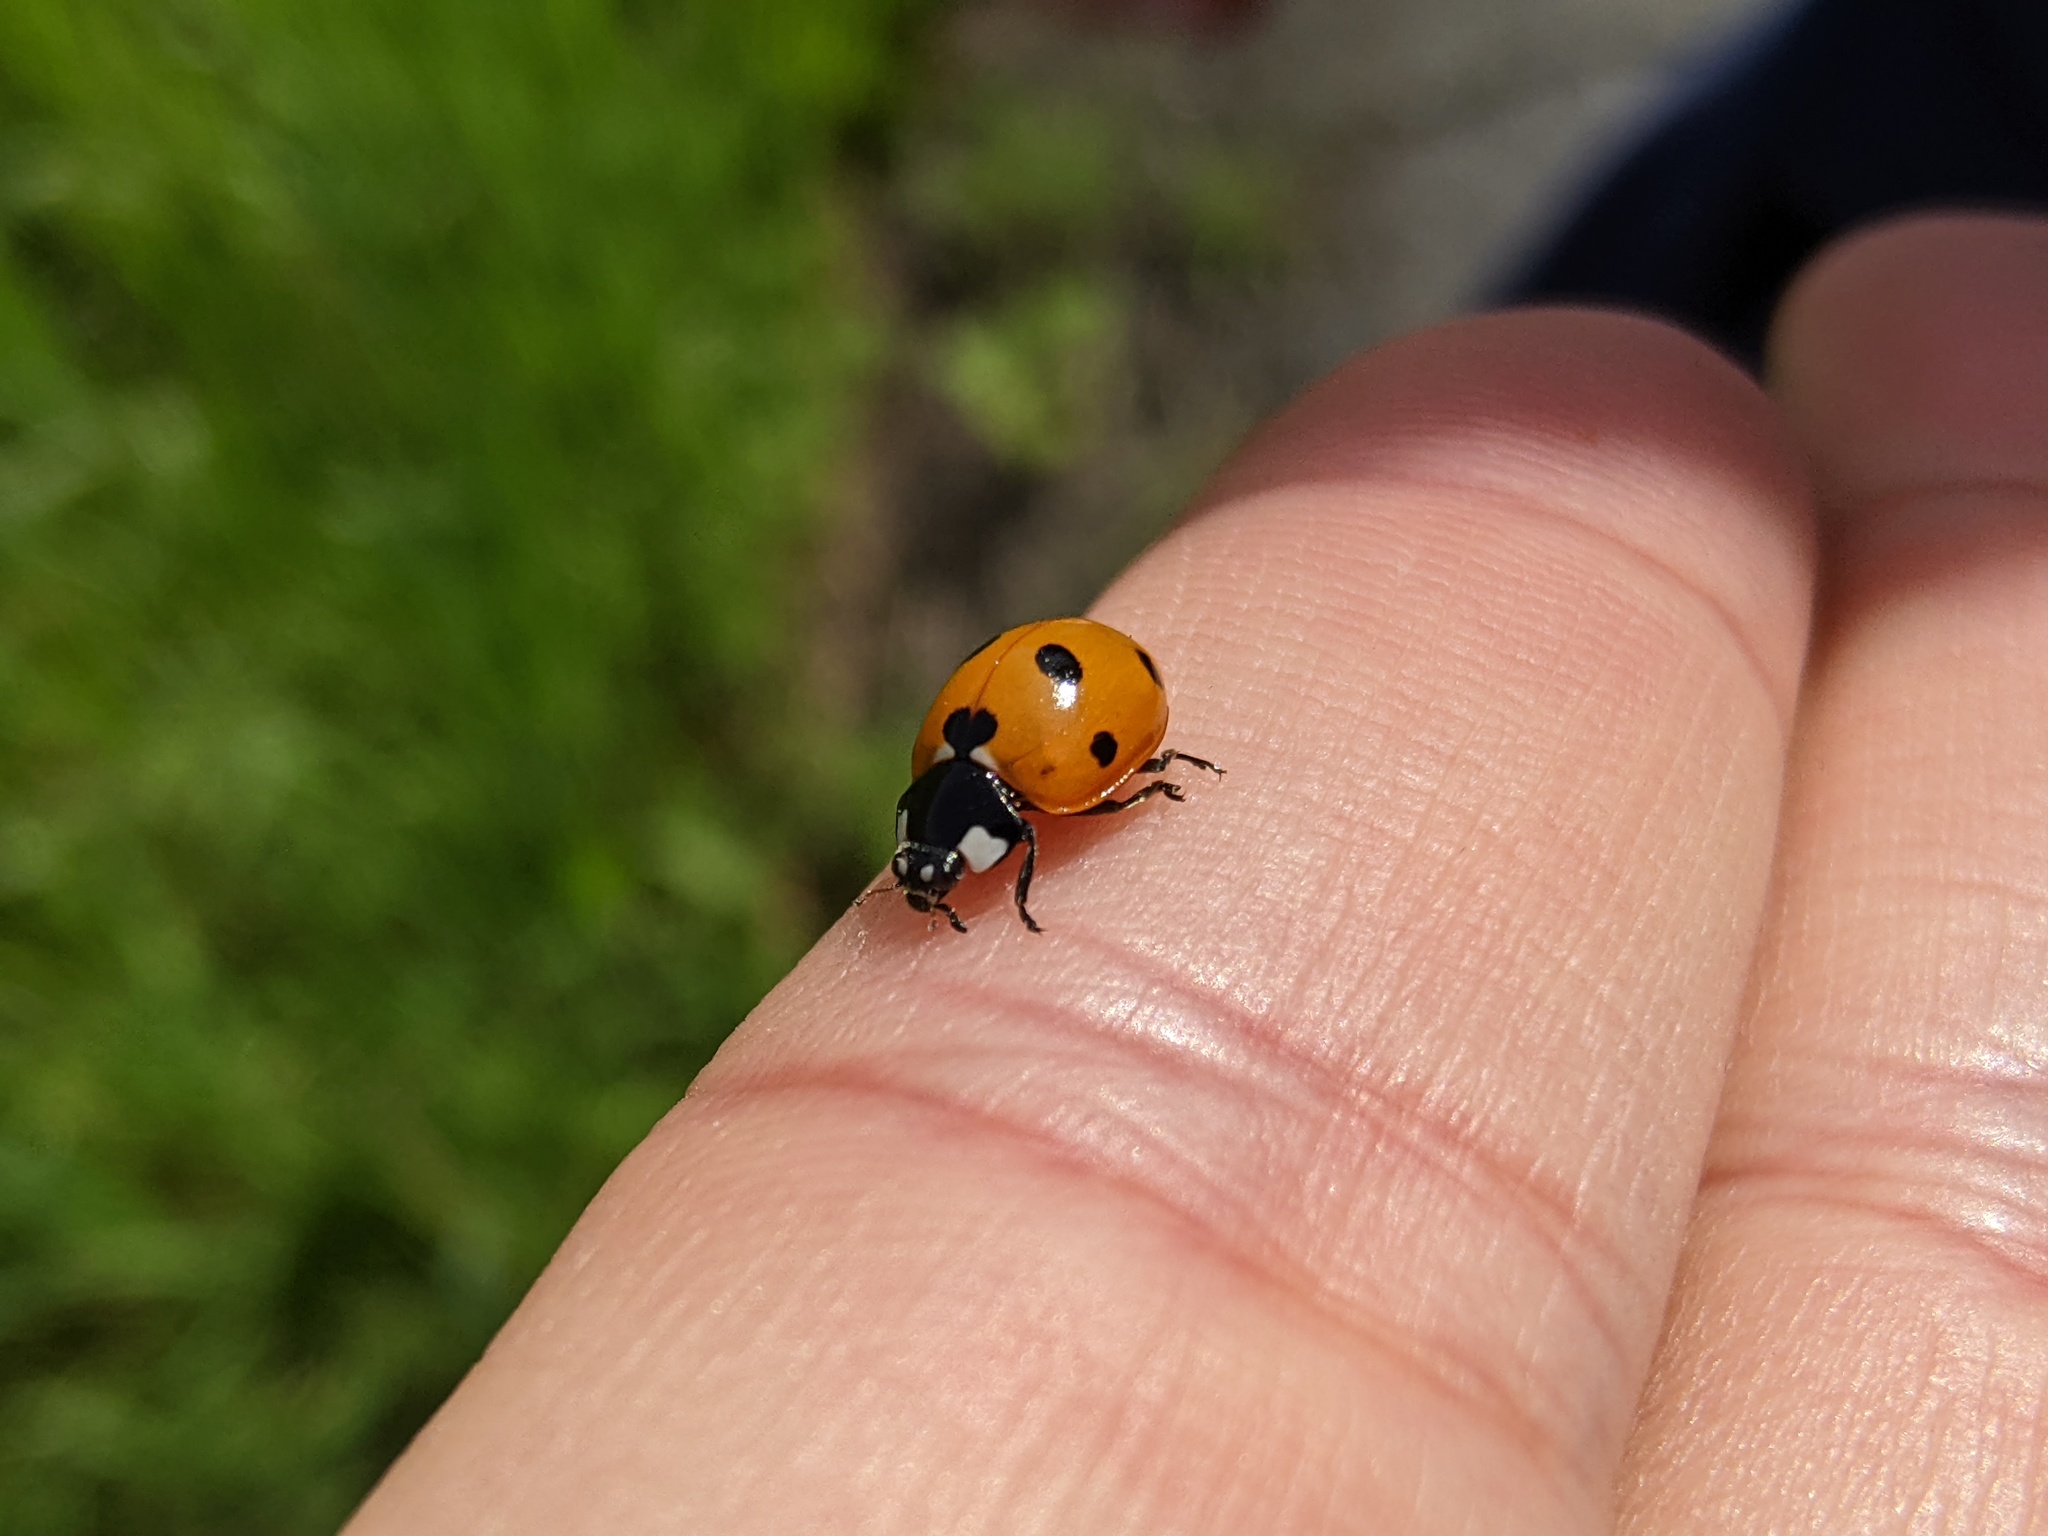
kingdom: Animalia
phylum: Arthropoda
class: Insecta
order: Coleoptera
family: Coccinellidae
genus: Coccinella
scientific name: Coccinella septempunctata
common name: Sevenspotted lady beetle
